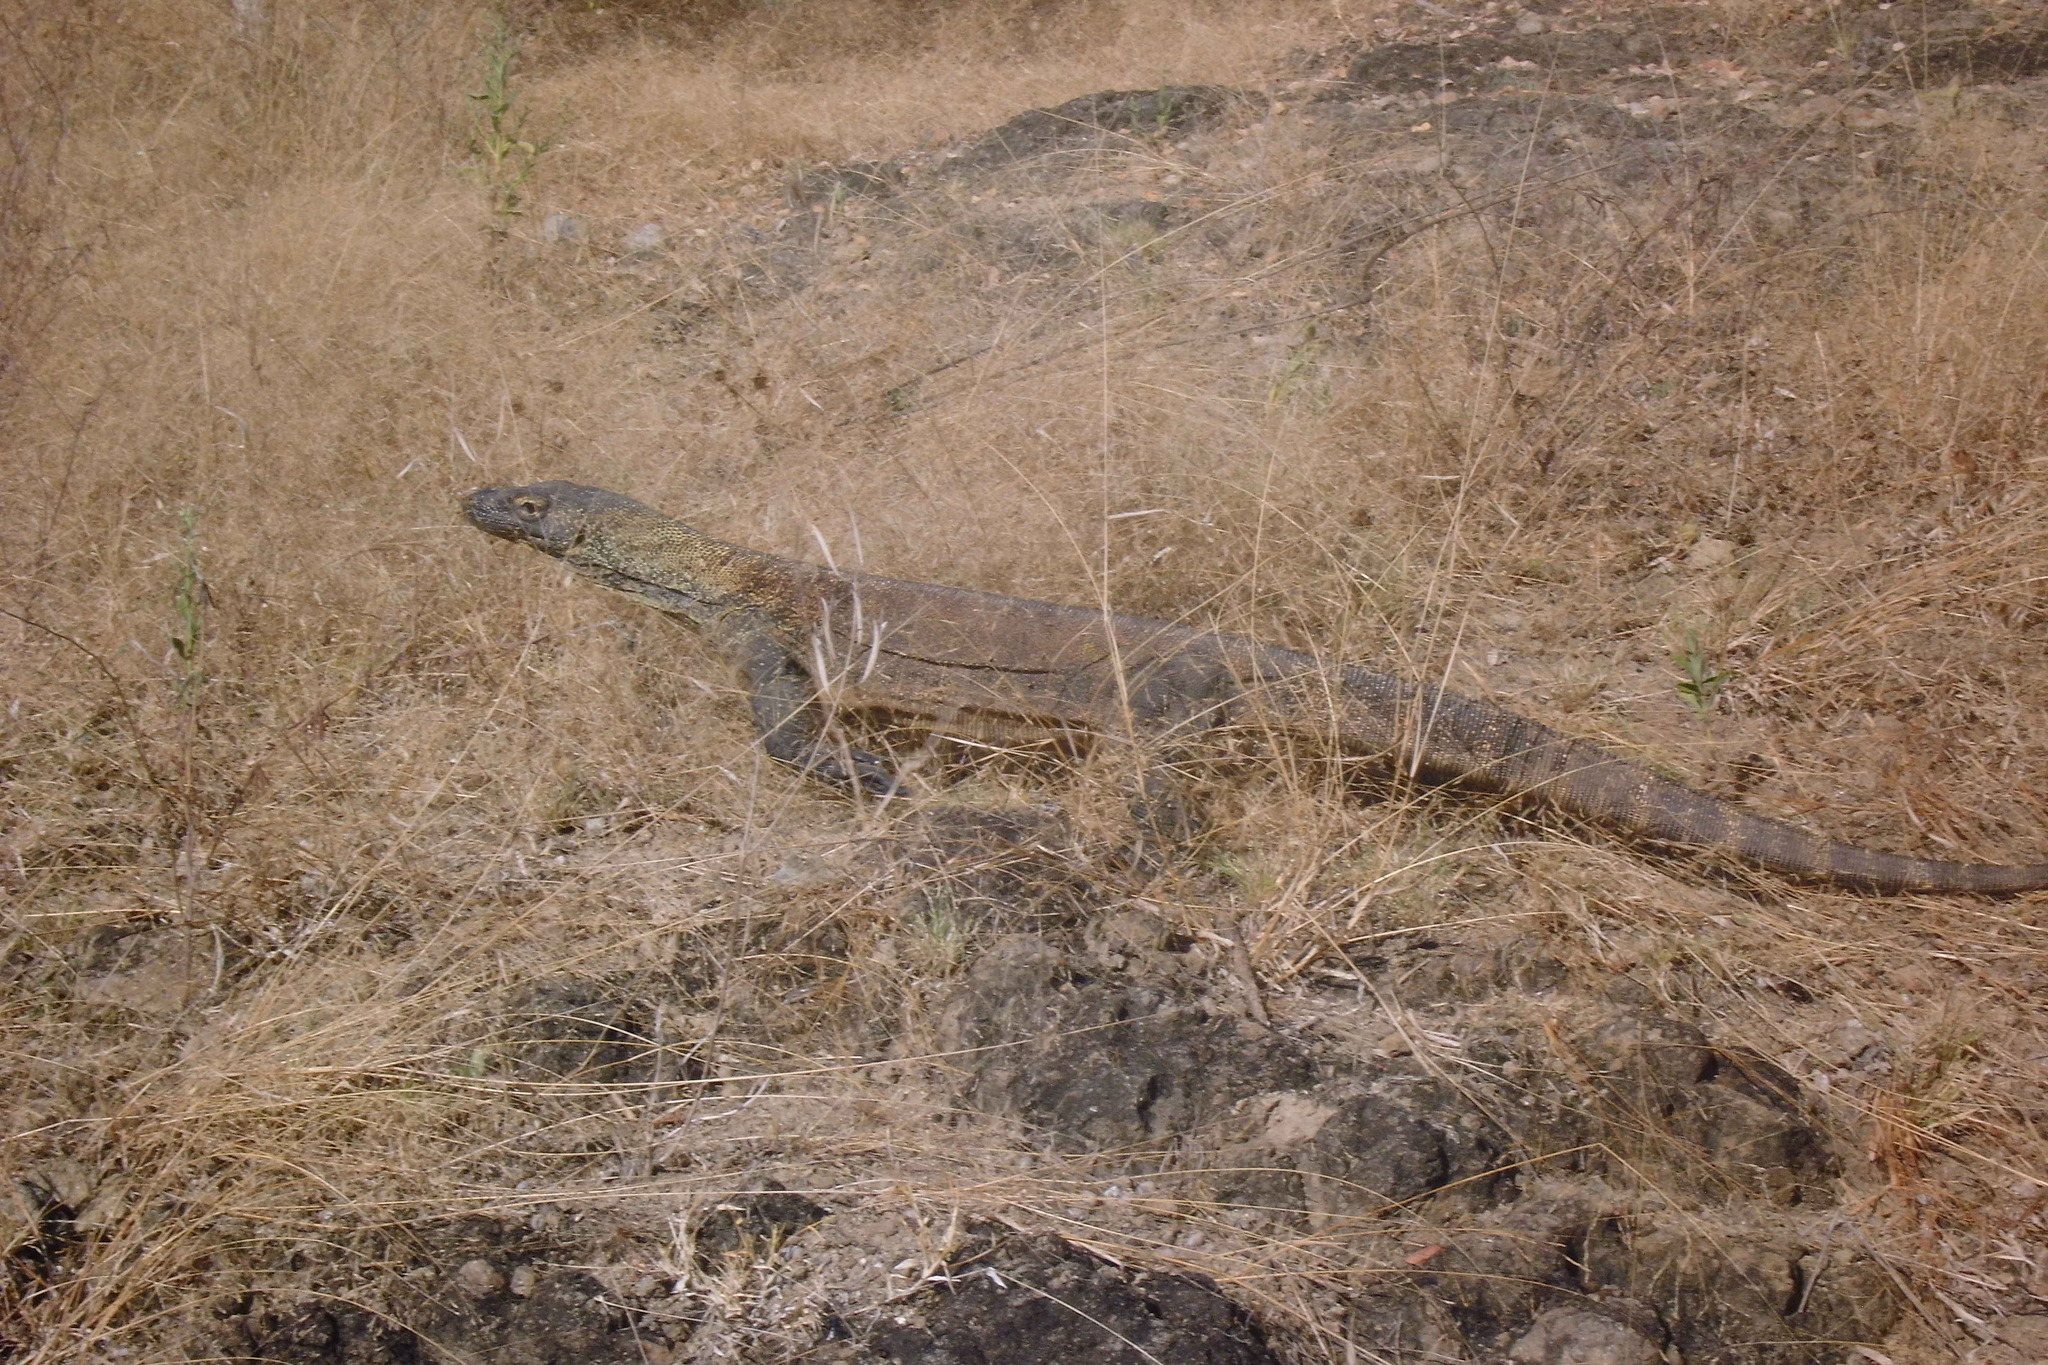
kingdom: Animalia
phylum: Chordata
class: Squamata
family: Varanidae
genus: Varanus
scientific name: Varanus komodoensis
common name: Komodo dragon
